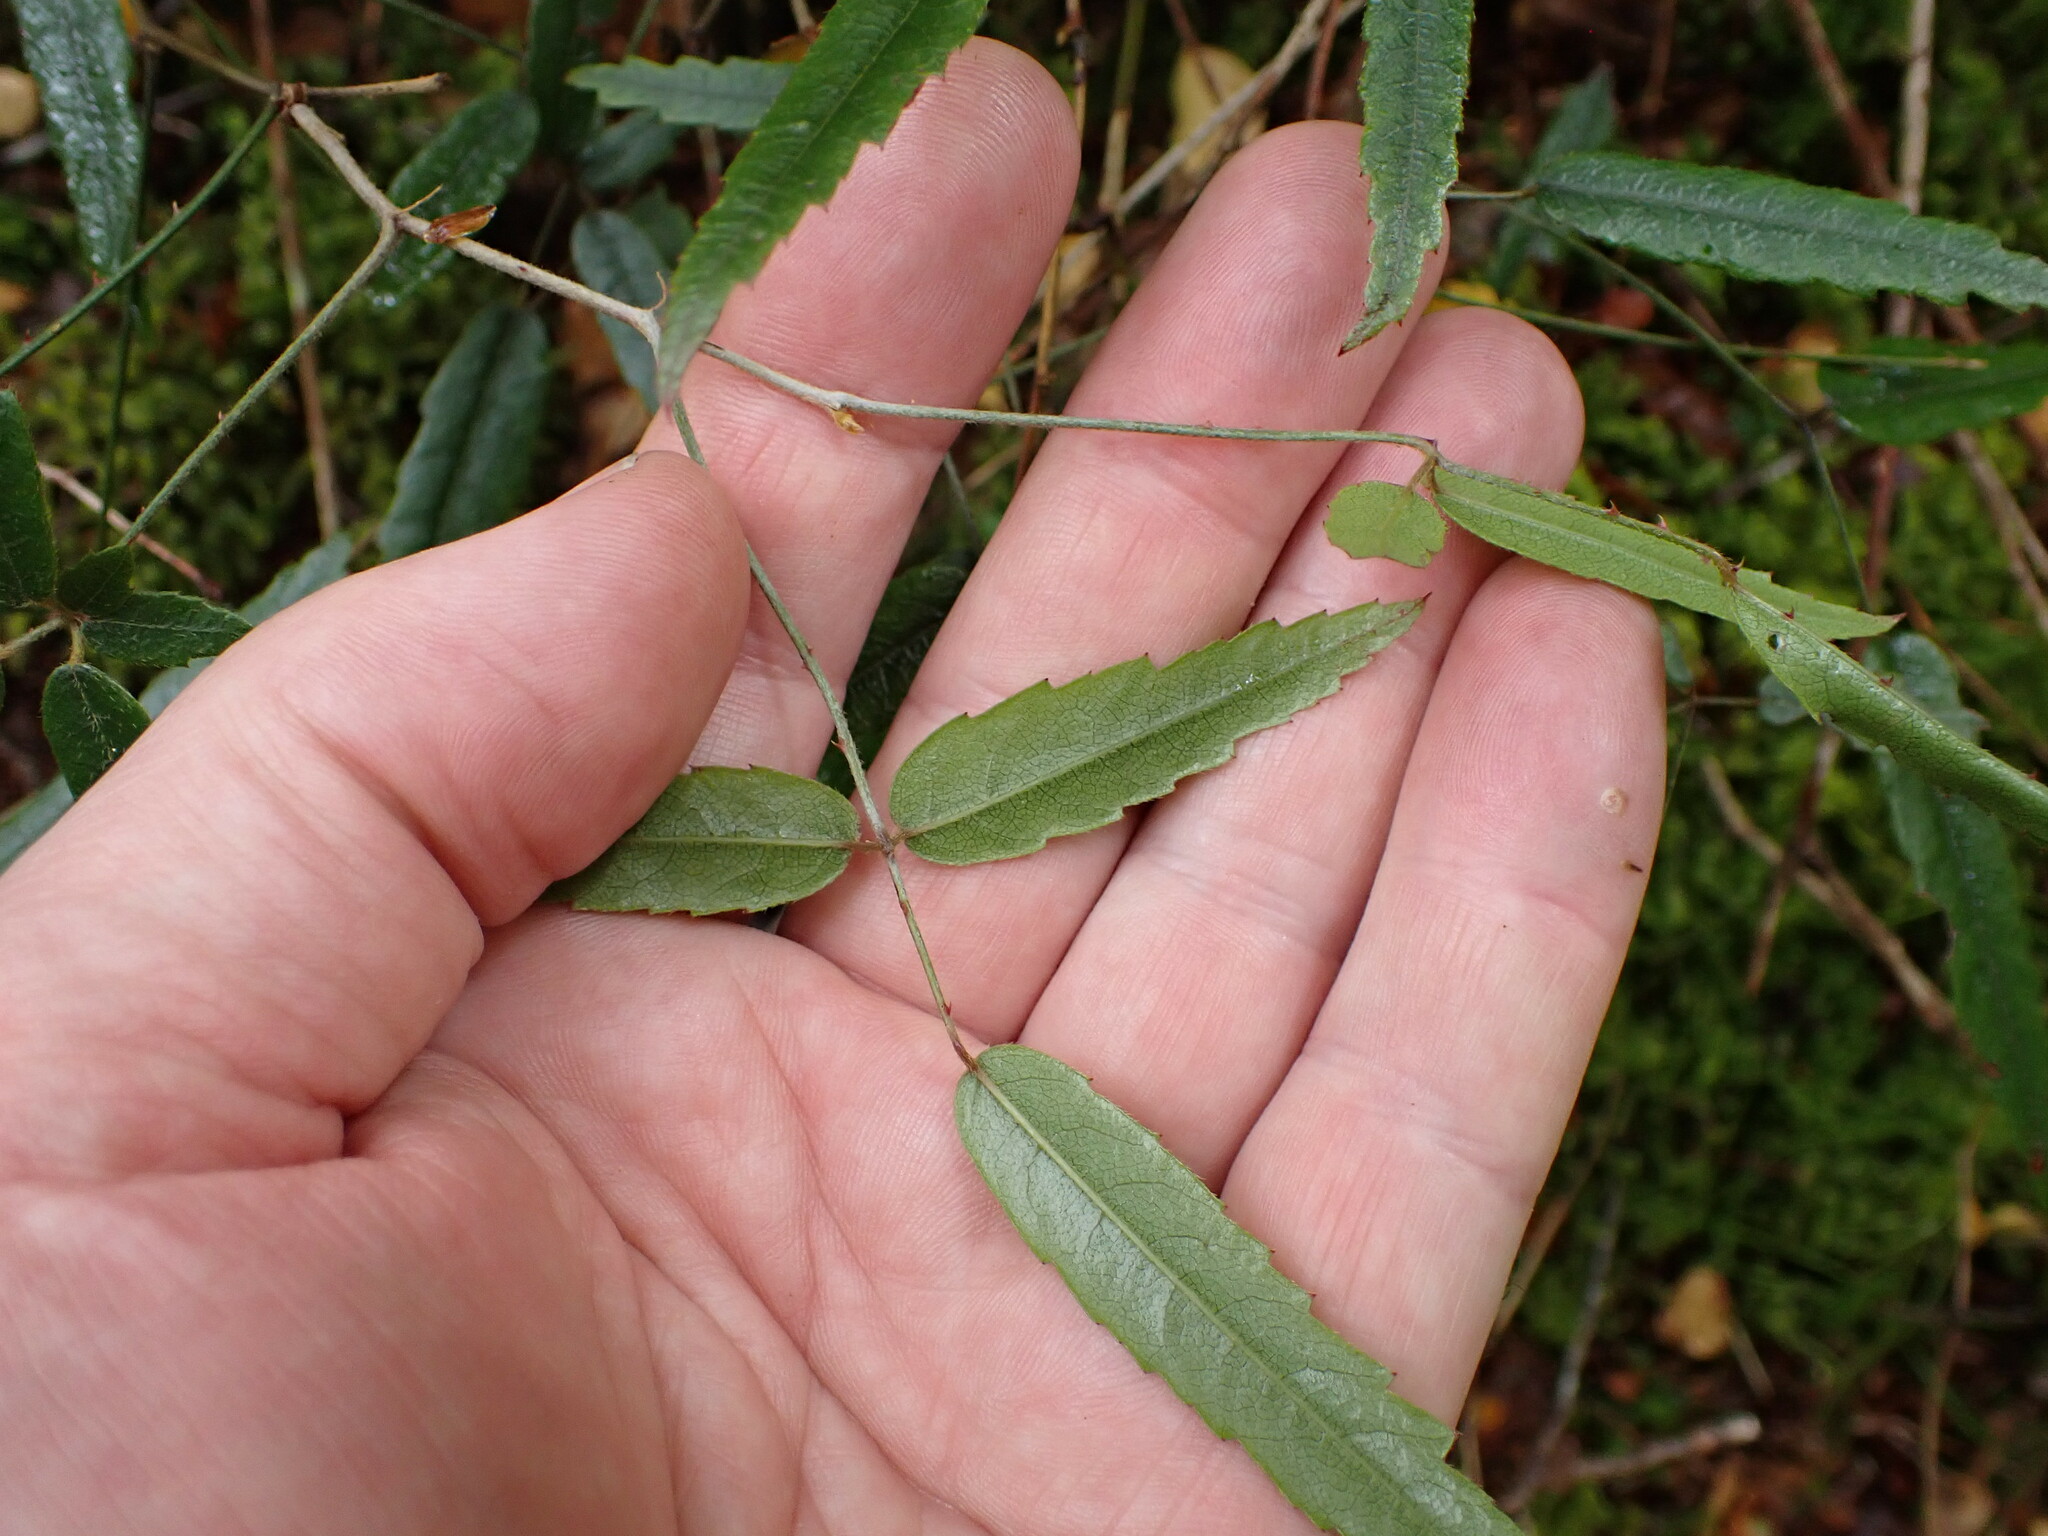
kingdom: Plantae
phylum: Tracheophyta
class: Magnoliopsida
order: Rosales
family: Rosaceae
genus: Rubus
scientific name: Rubus schmidelioides
